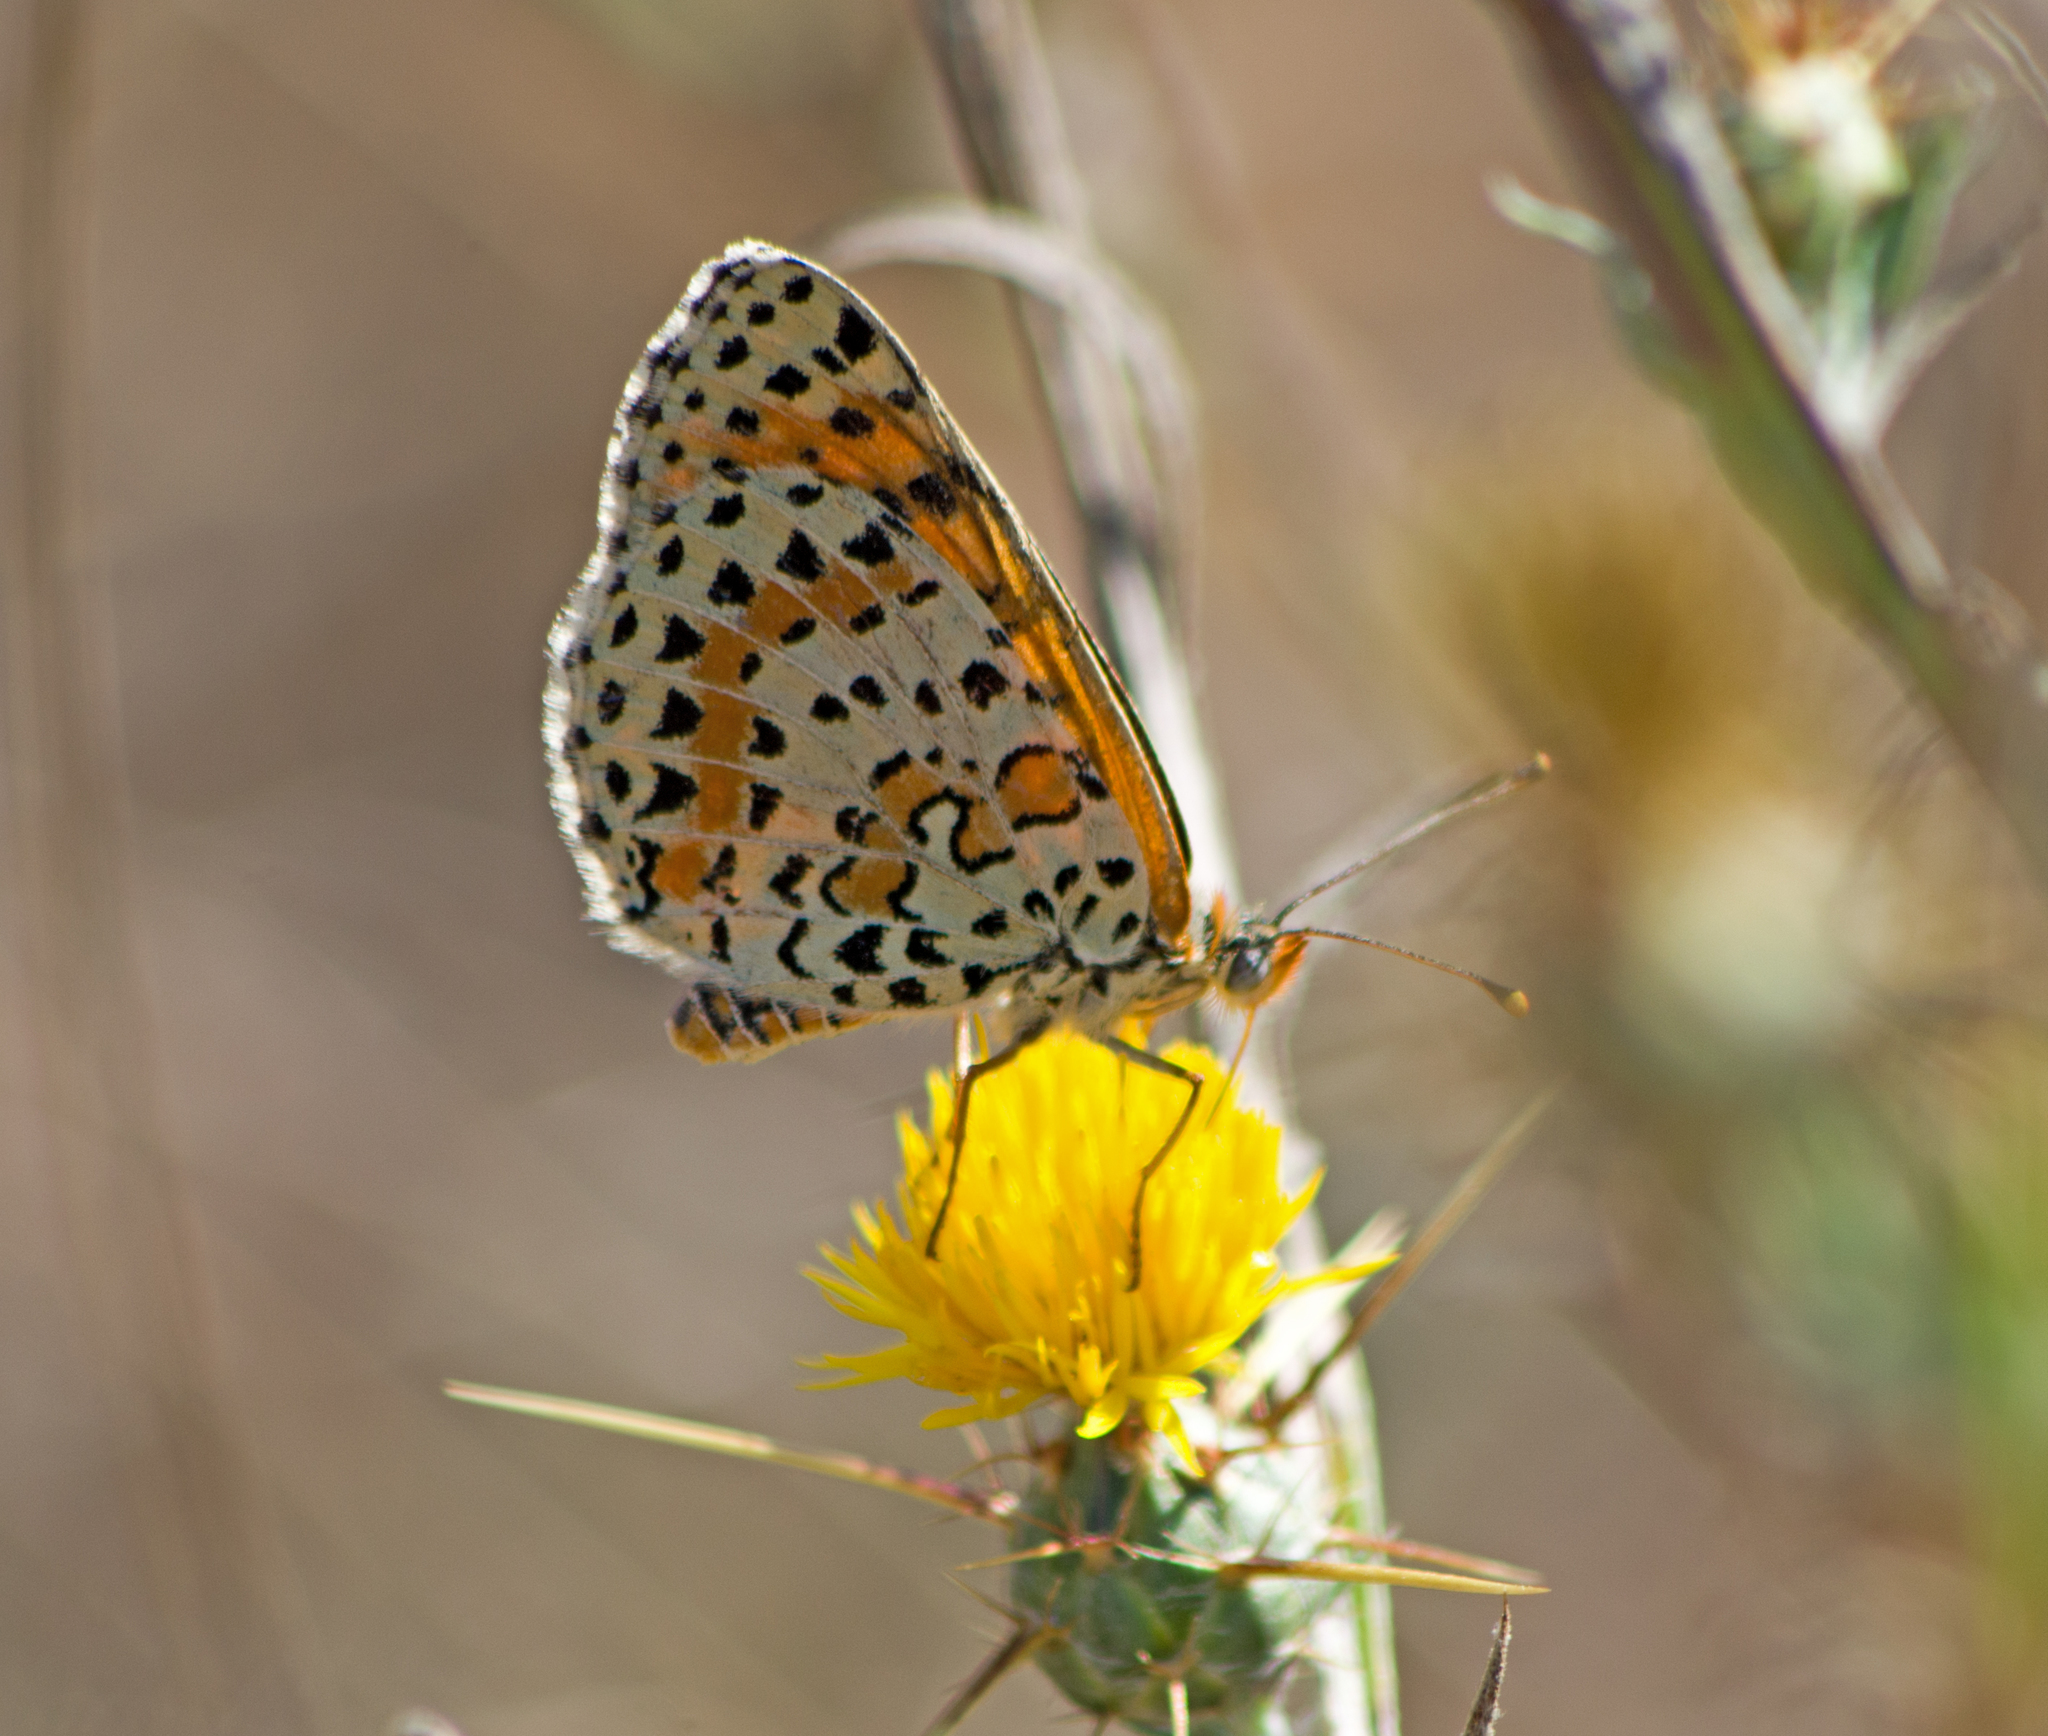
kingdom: Animalia
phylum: Arthropoda
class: Insecta
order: Lepidoptera
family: Nymphalidae
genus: Melitaea
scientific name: Melitaea didyma
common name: Spotted fritillary
